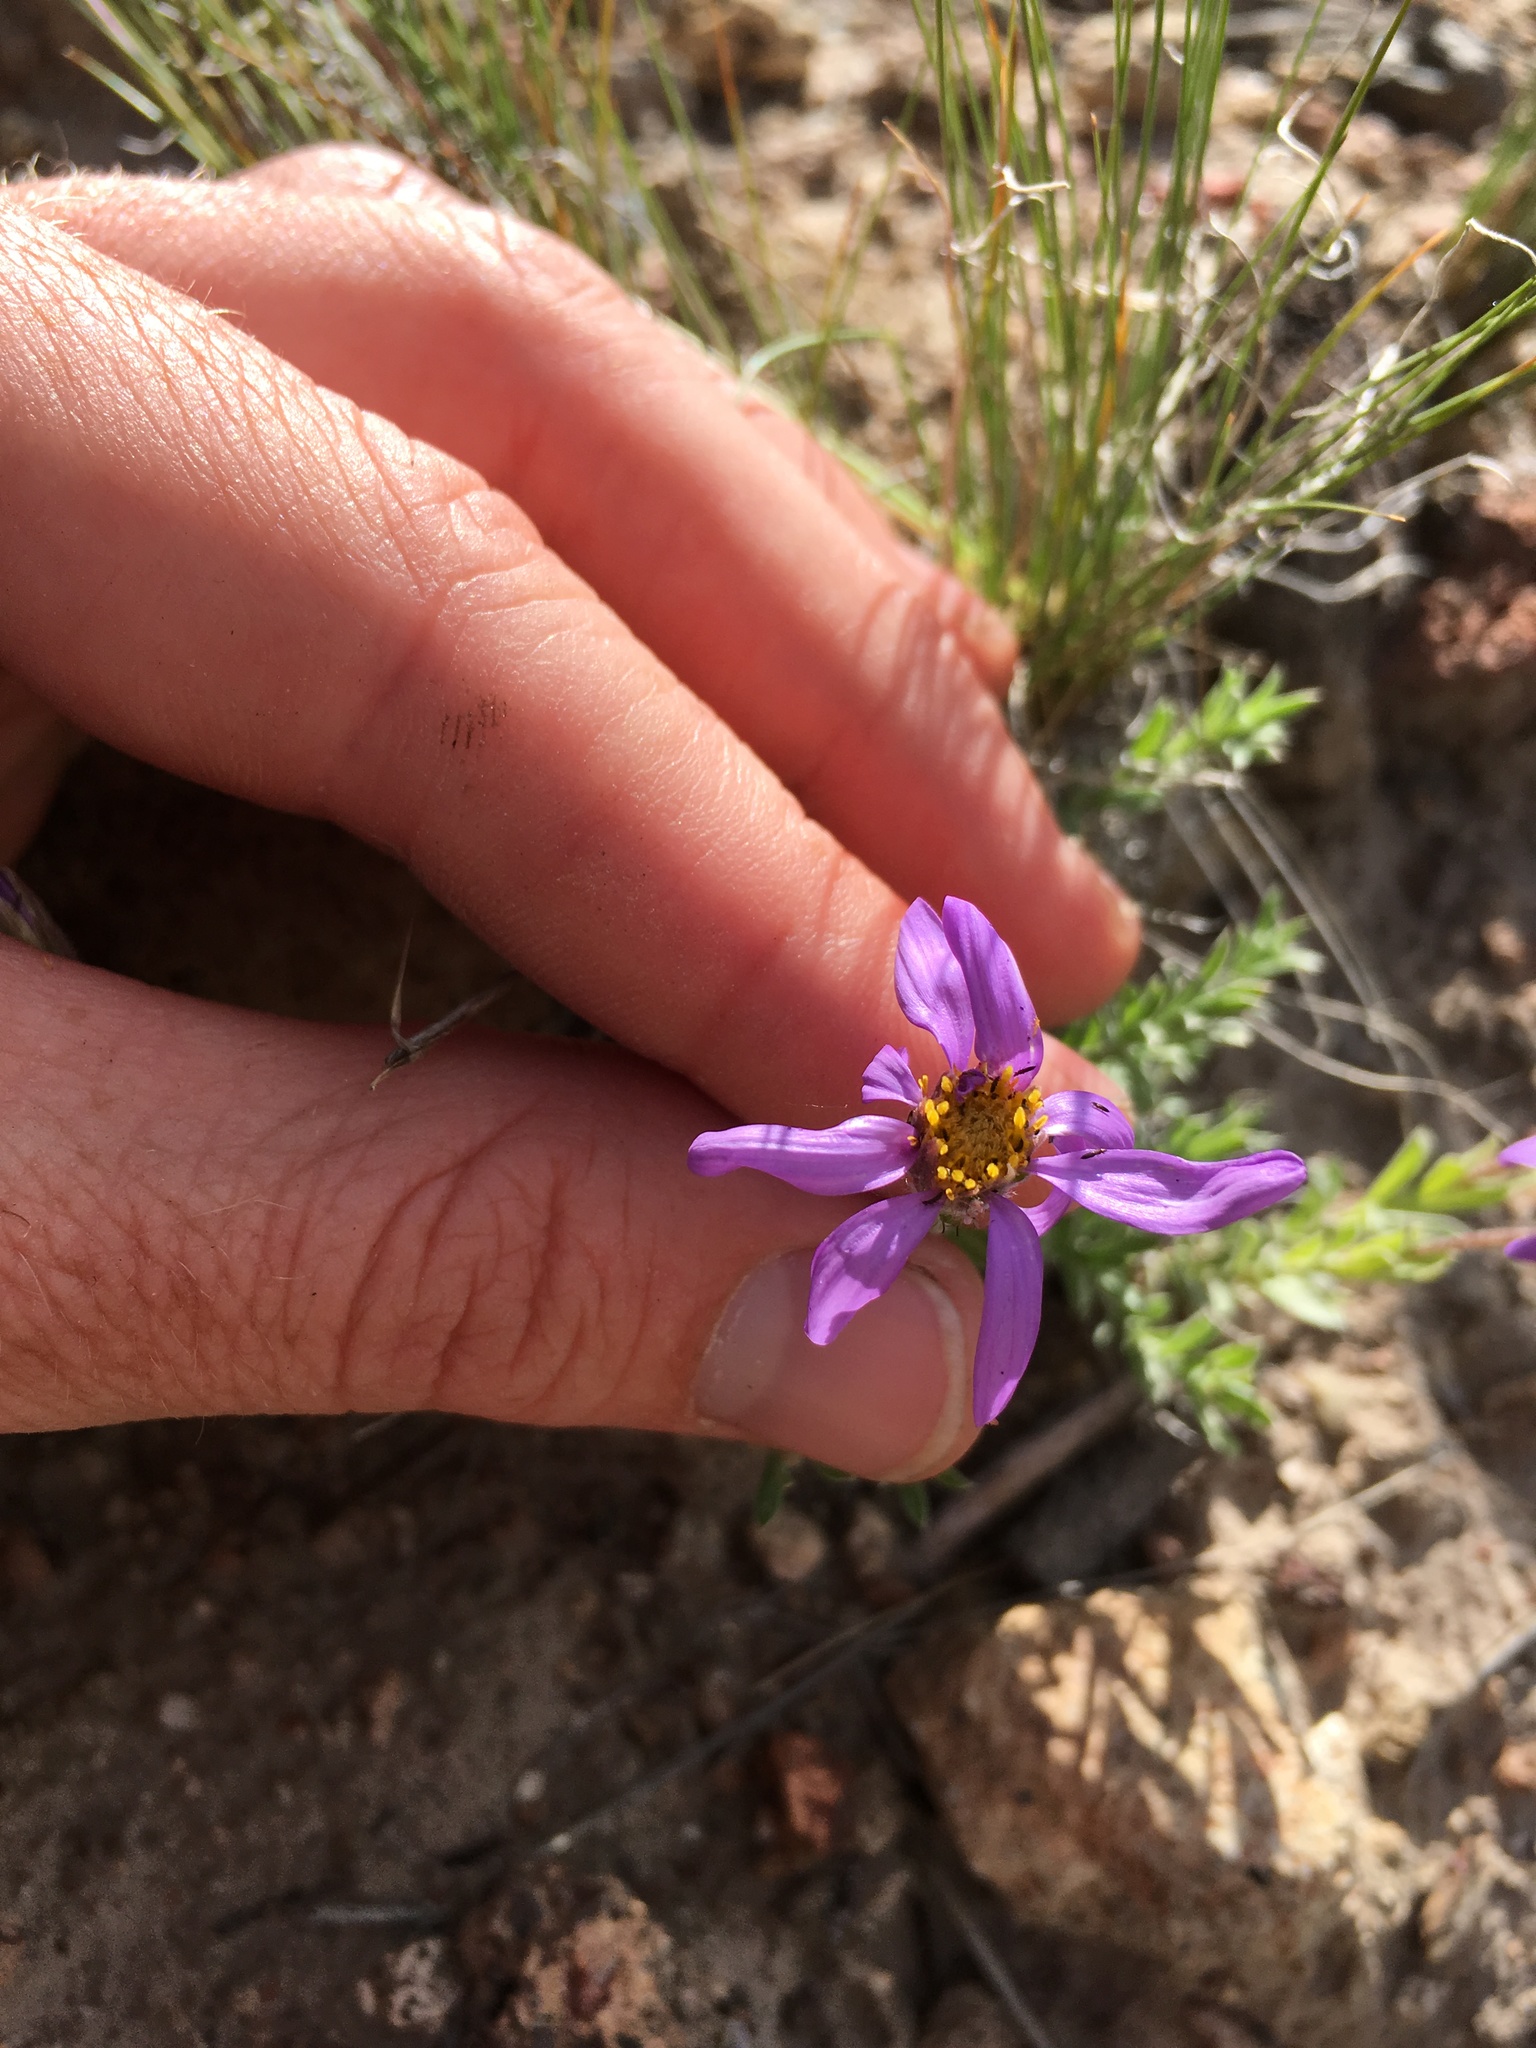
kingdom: Plantae
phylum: Tracheophyta
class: Magnoliopsida
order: Asterales
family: Asteraceae
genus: Ionactis
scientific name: Ionactis alpina
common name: Crag aster
